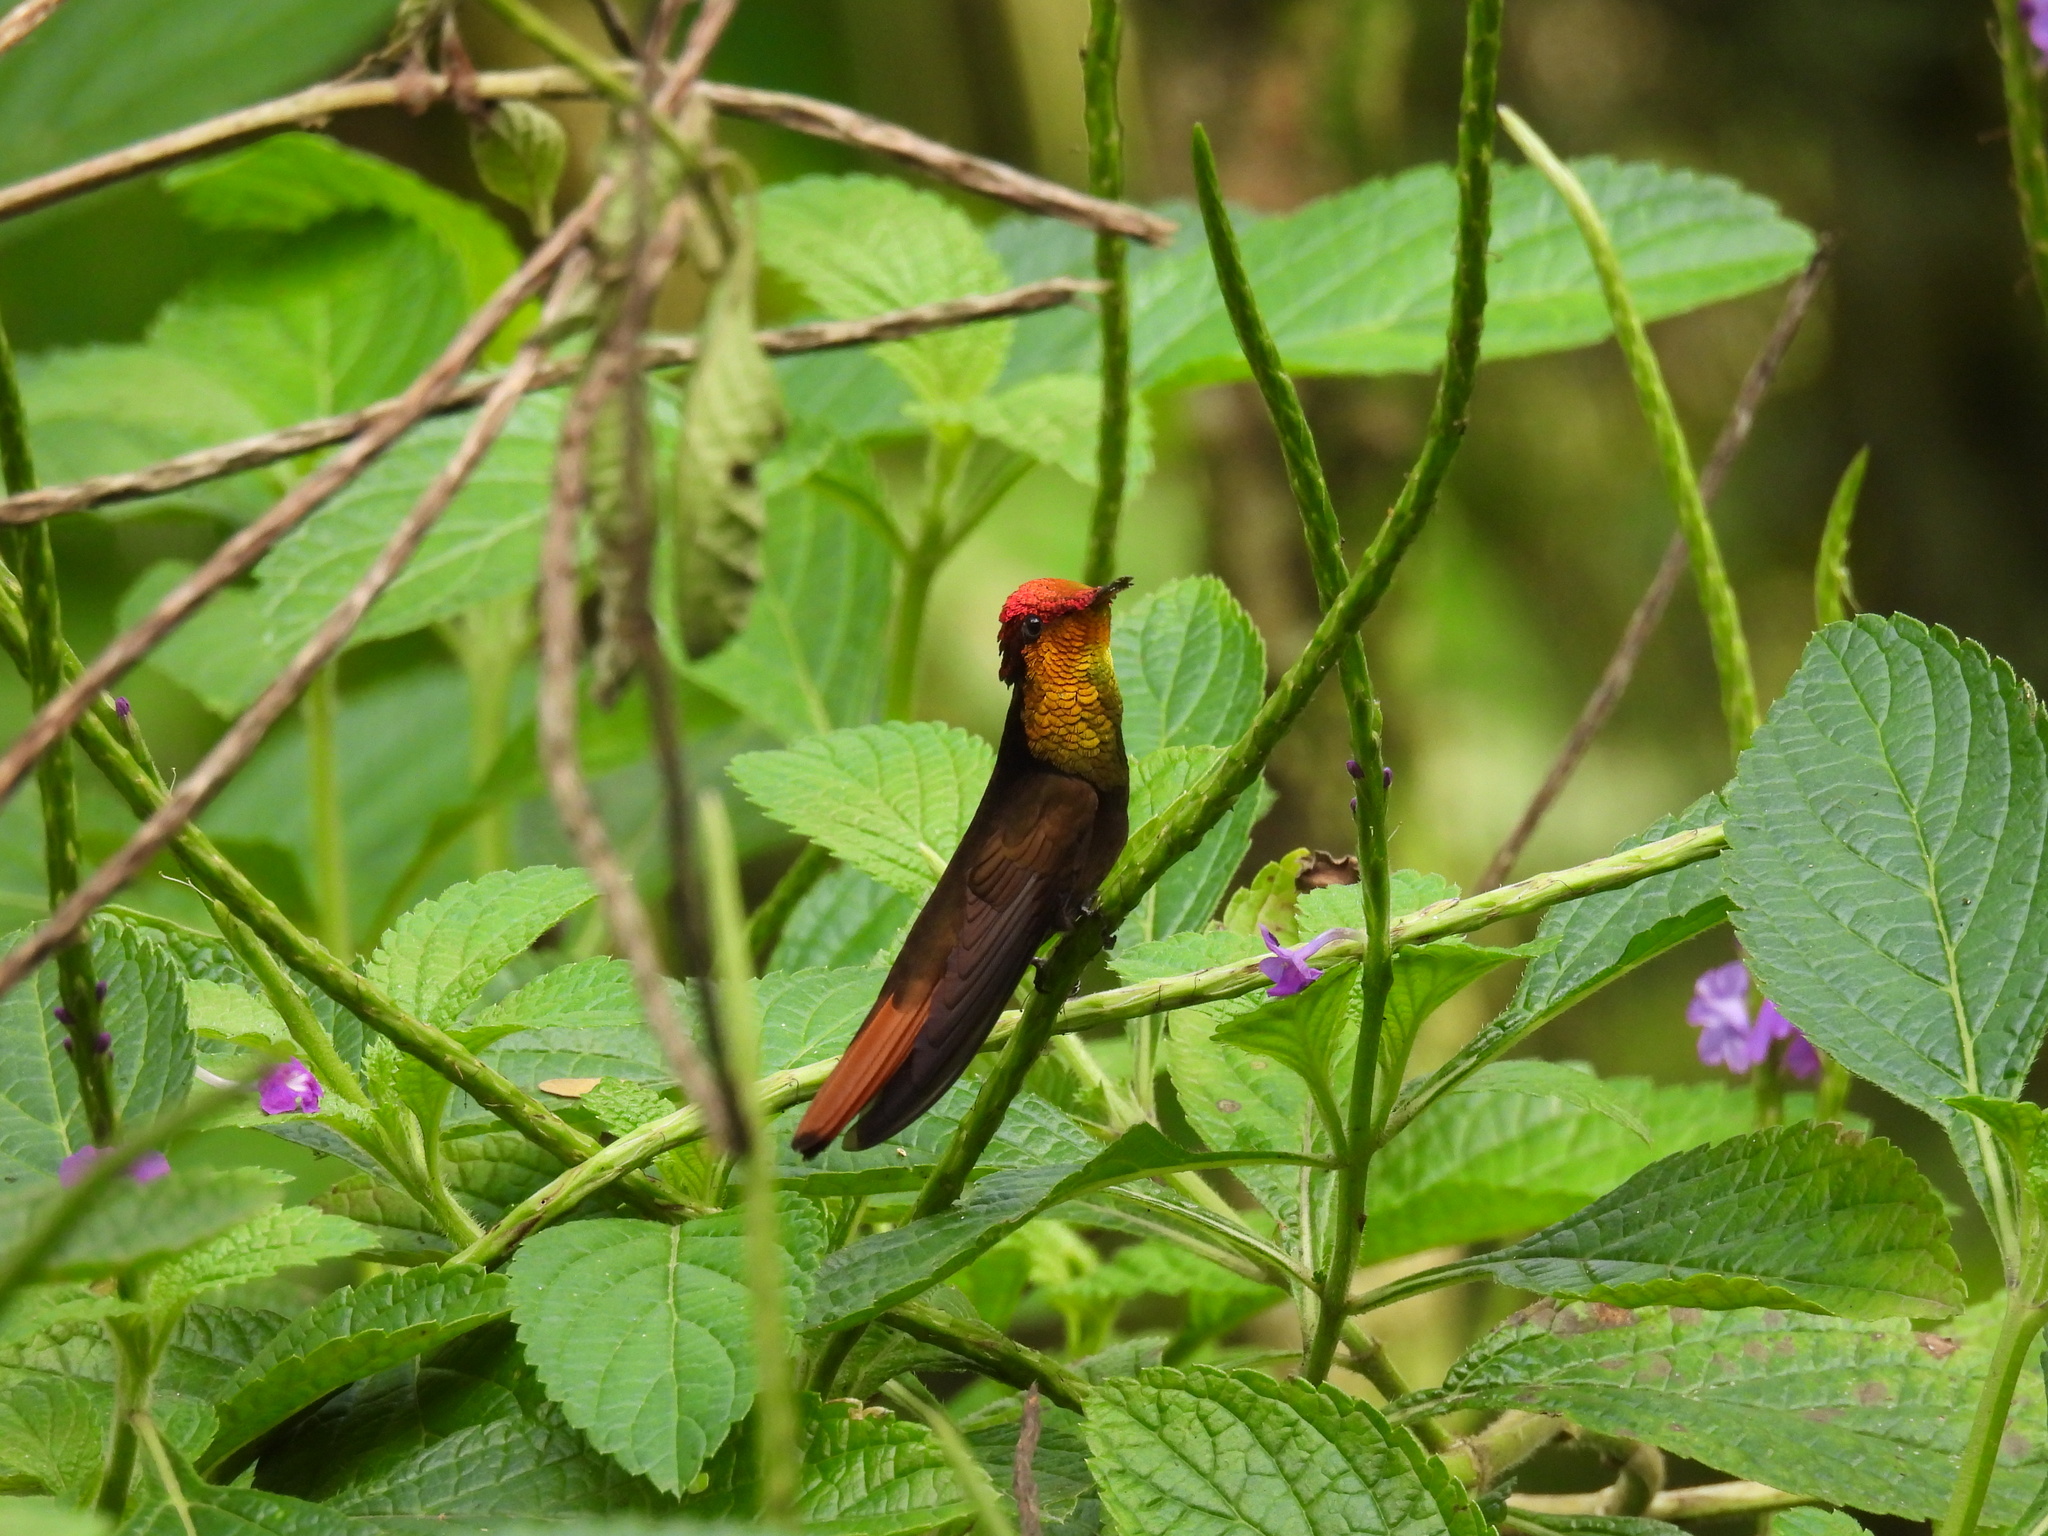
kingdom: Animalia
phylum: Chordata
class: Aves
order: Apodiformes
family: Trochilidae
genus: Chrysolampis
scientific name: Chrysolampis mosquitus
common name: Ruby-topaz hummingbird
